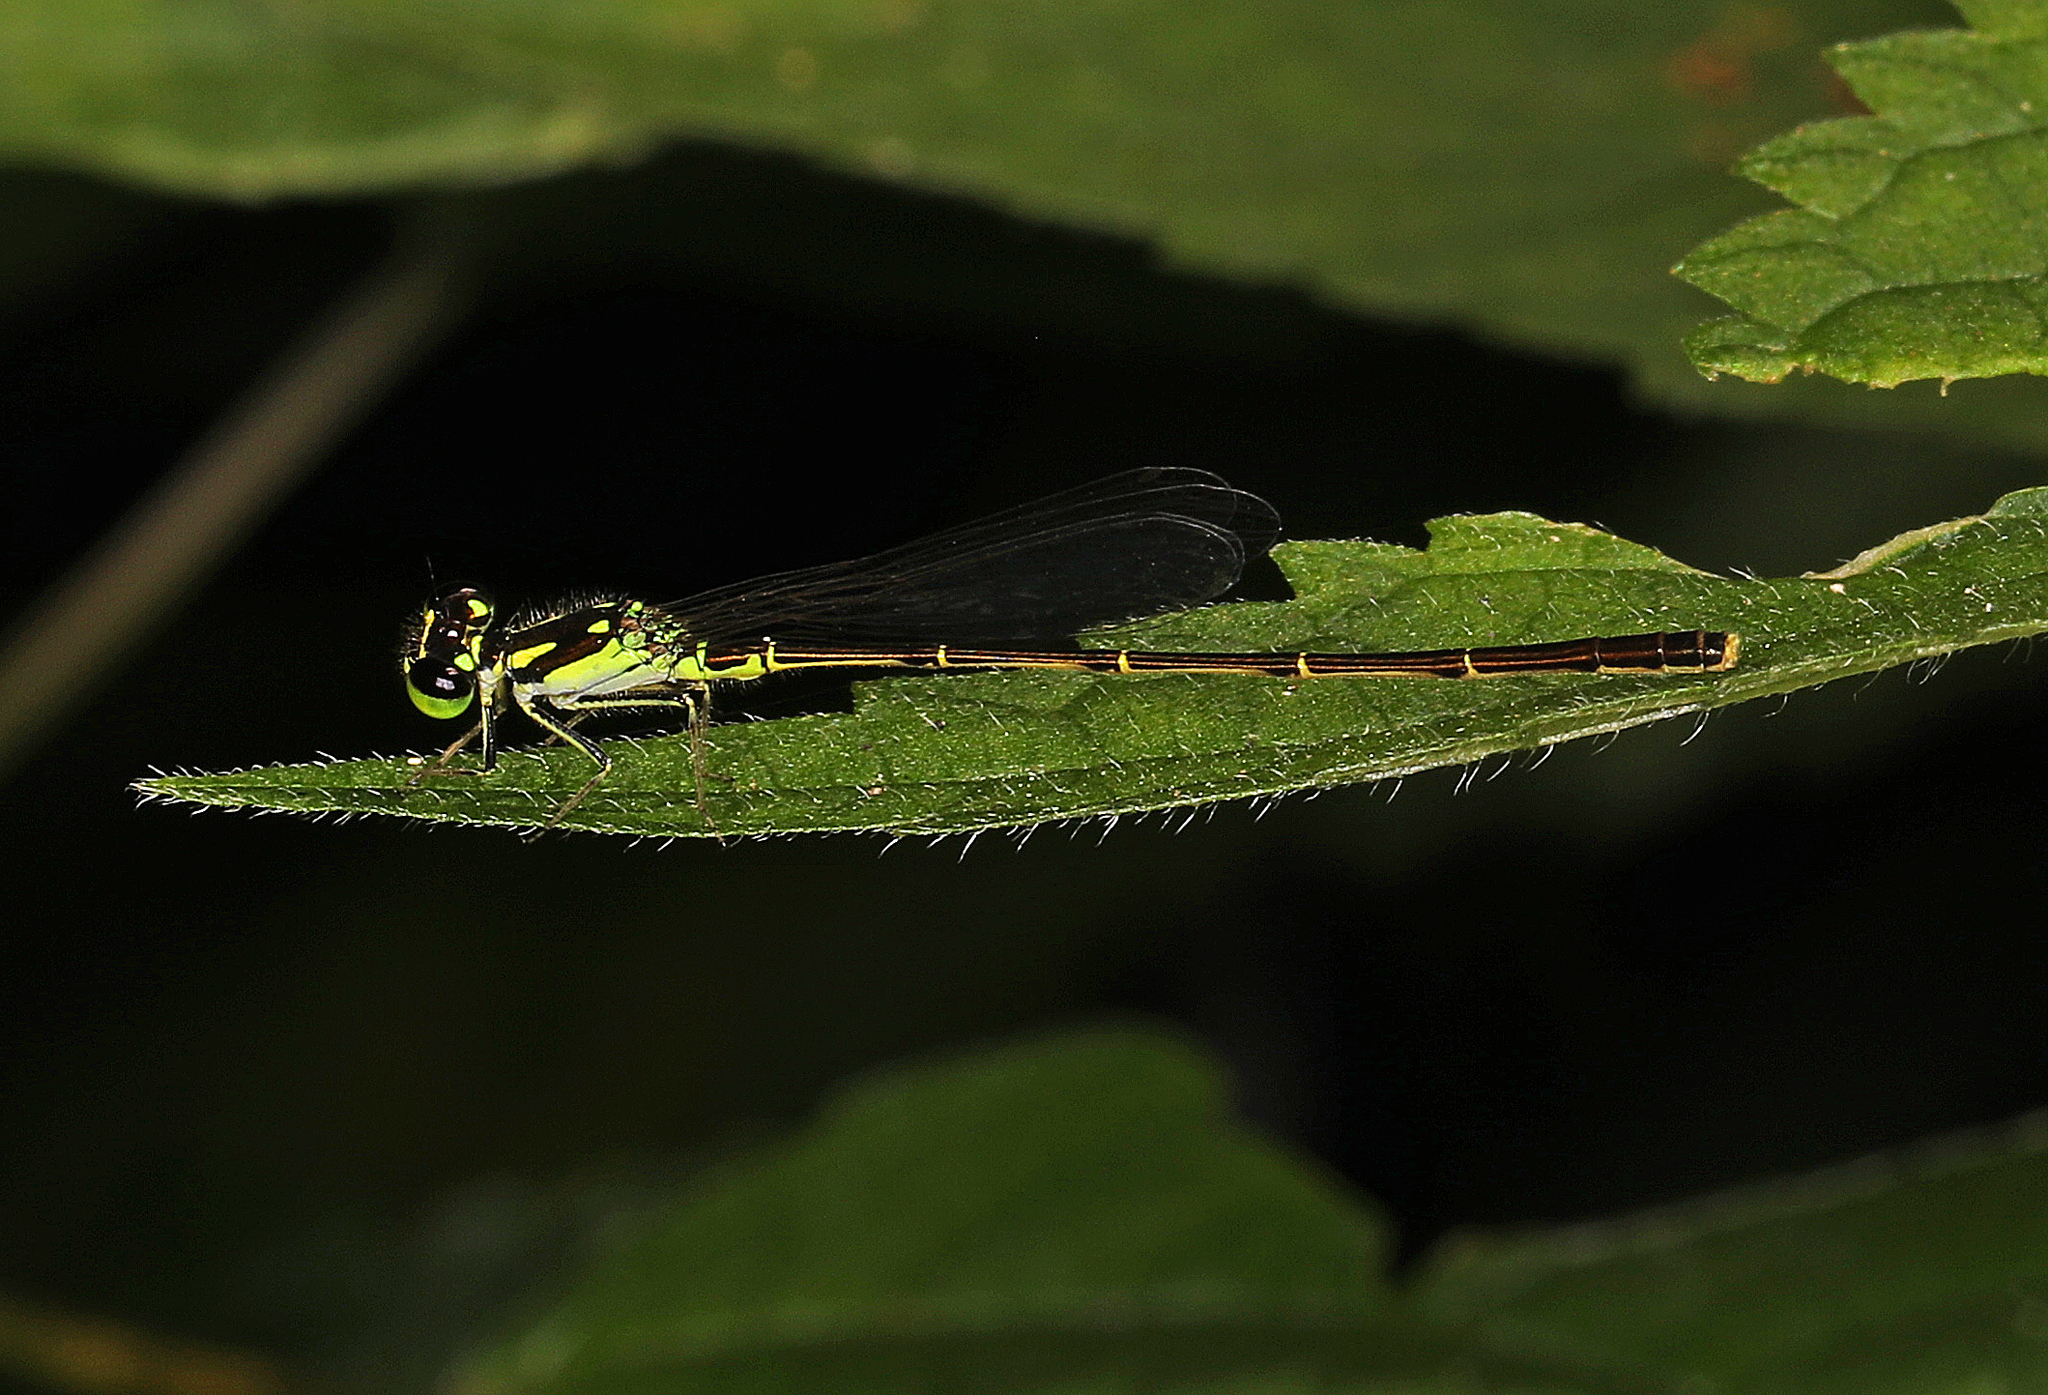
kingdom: Animalia
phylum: Arthropoda
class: Insecta
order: Odonata
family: Coenagrionidae
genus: Ischnura
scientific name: Ischnura posita
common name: Fragile forktail
